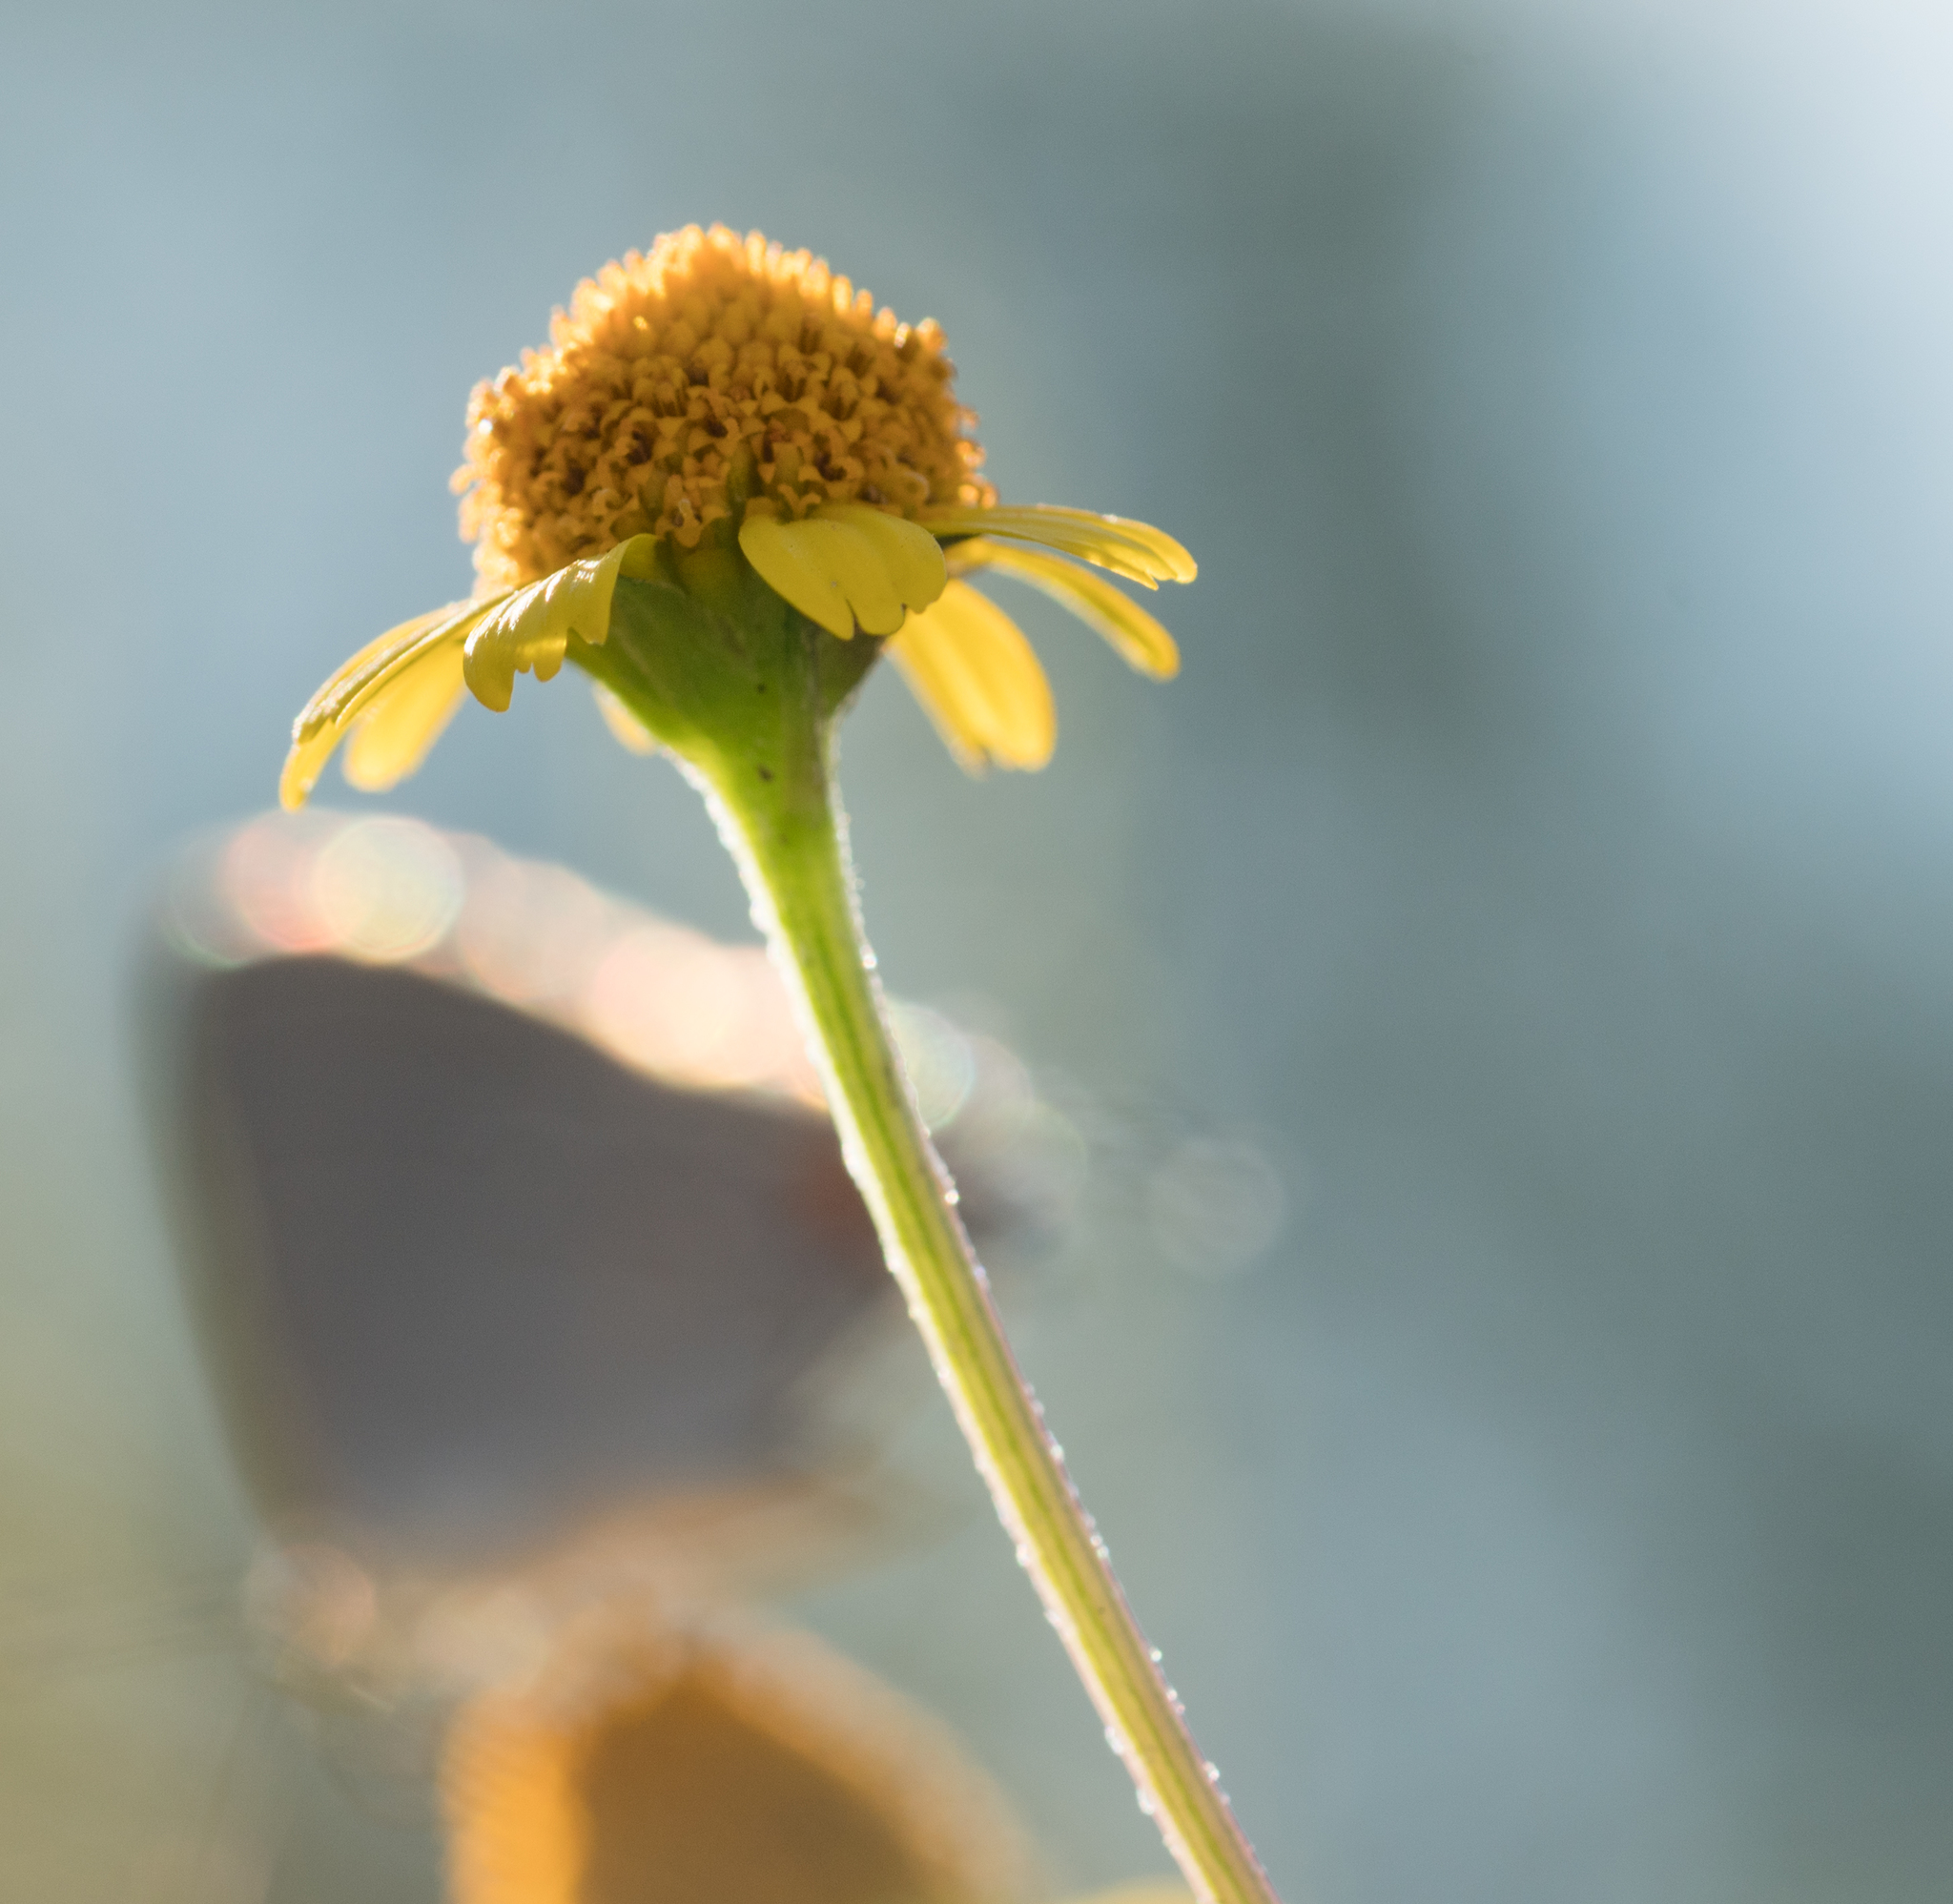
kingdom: Plantae
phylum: Tracheophyta
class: Magnoliopsida
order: Asterales
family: Asteraceae
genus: Acmella
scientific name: Acmella repens
